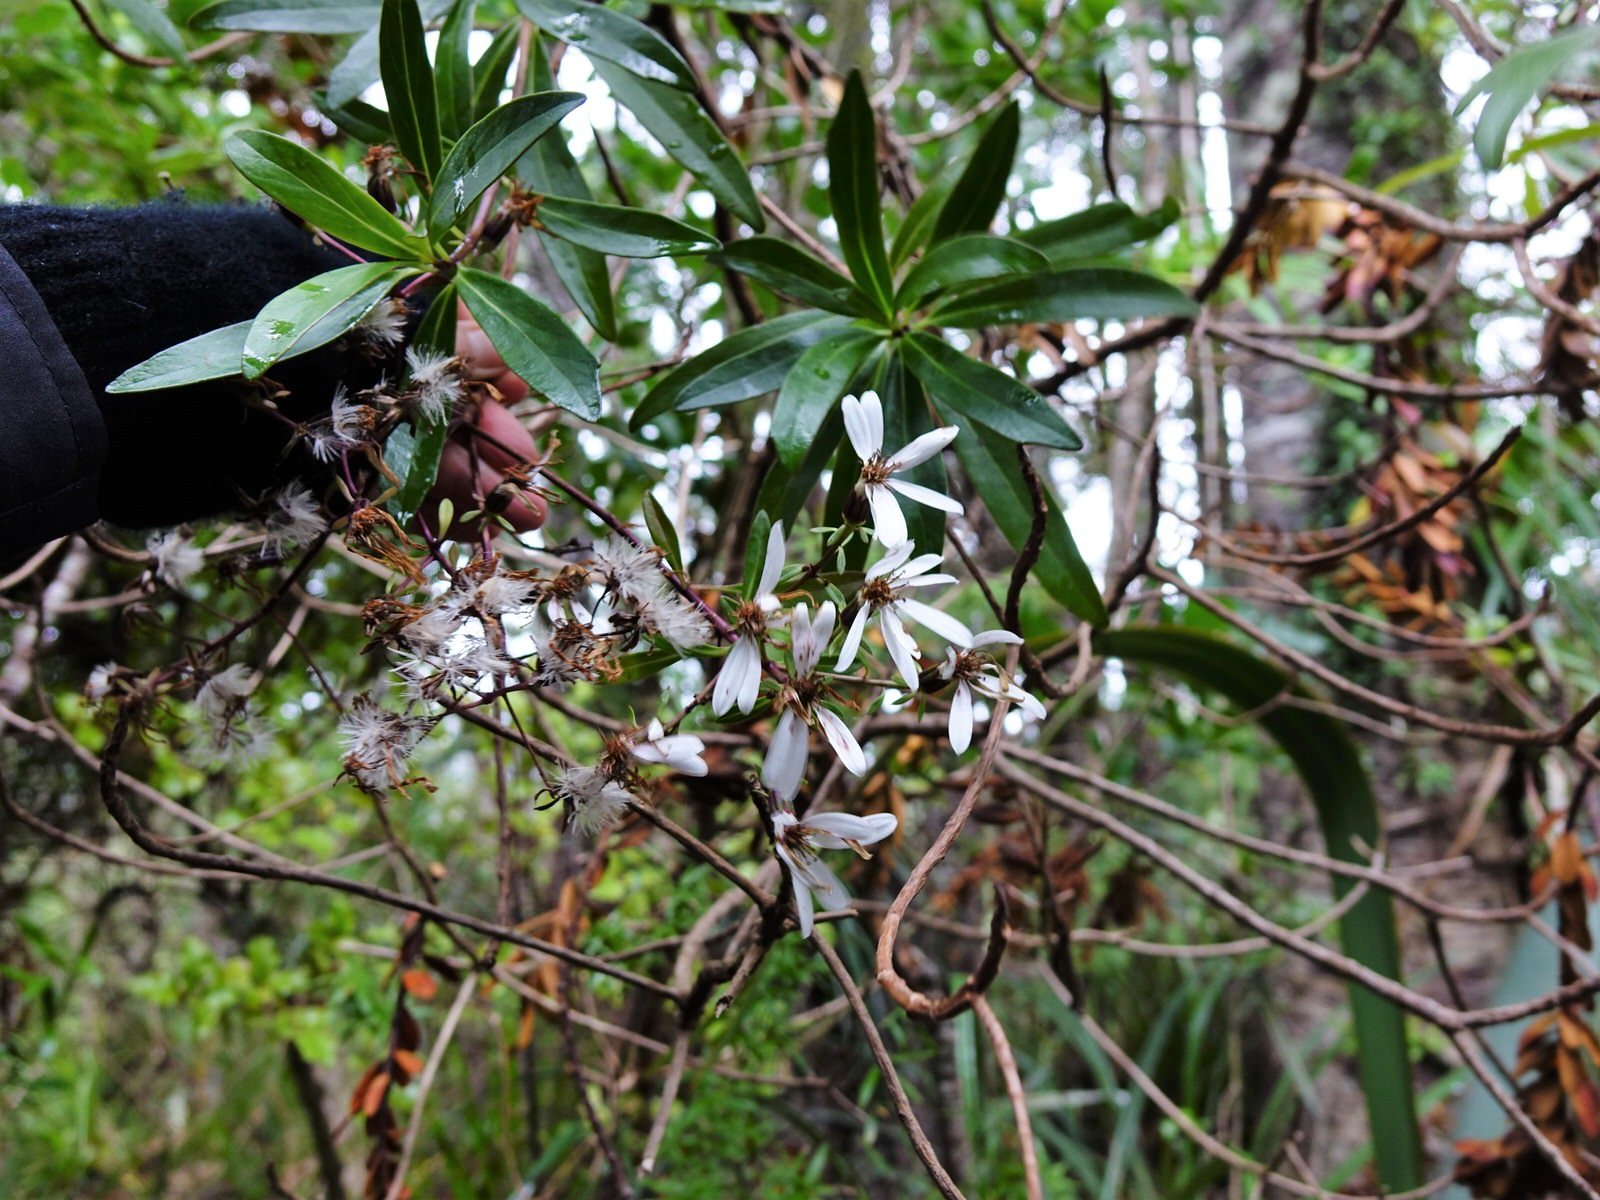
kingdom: Plantae
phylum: Tracheophyta
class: Magnoliopsida
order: Asterales
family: Asteraceae
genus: Brachyglottis
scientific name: Brachyglottis kirkii
